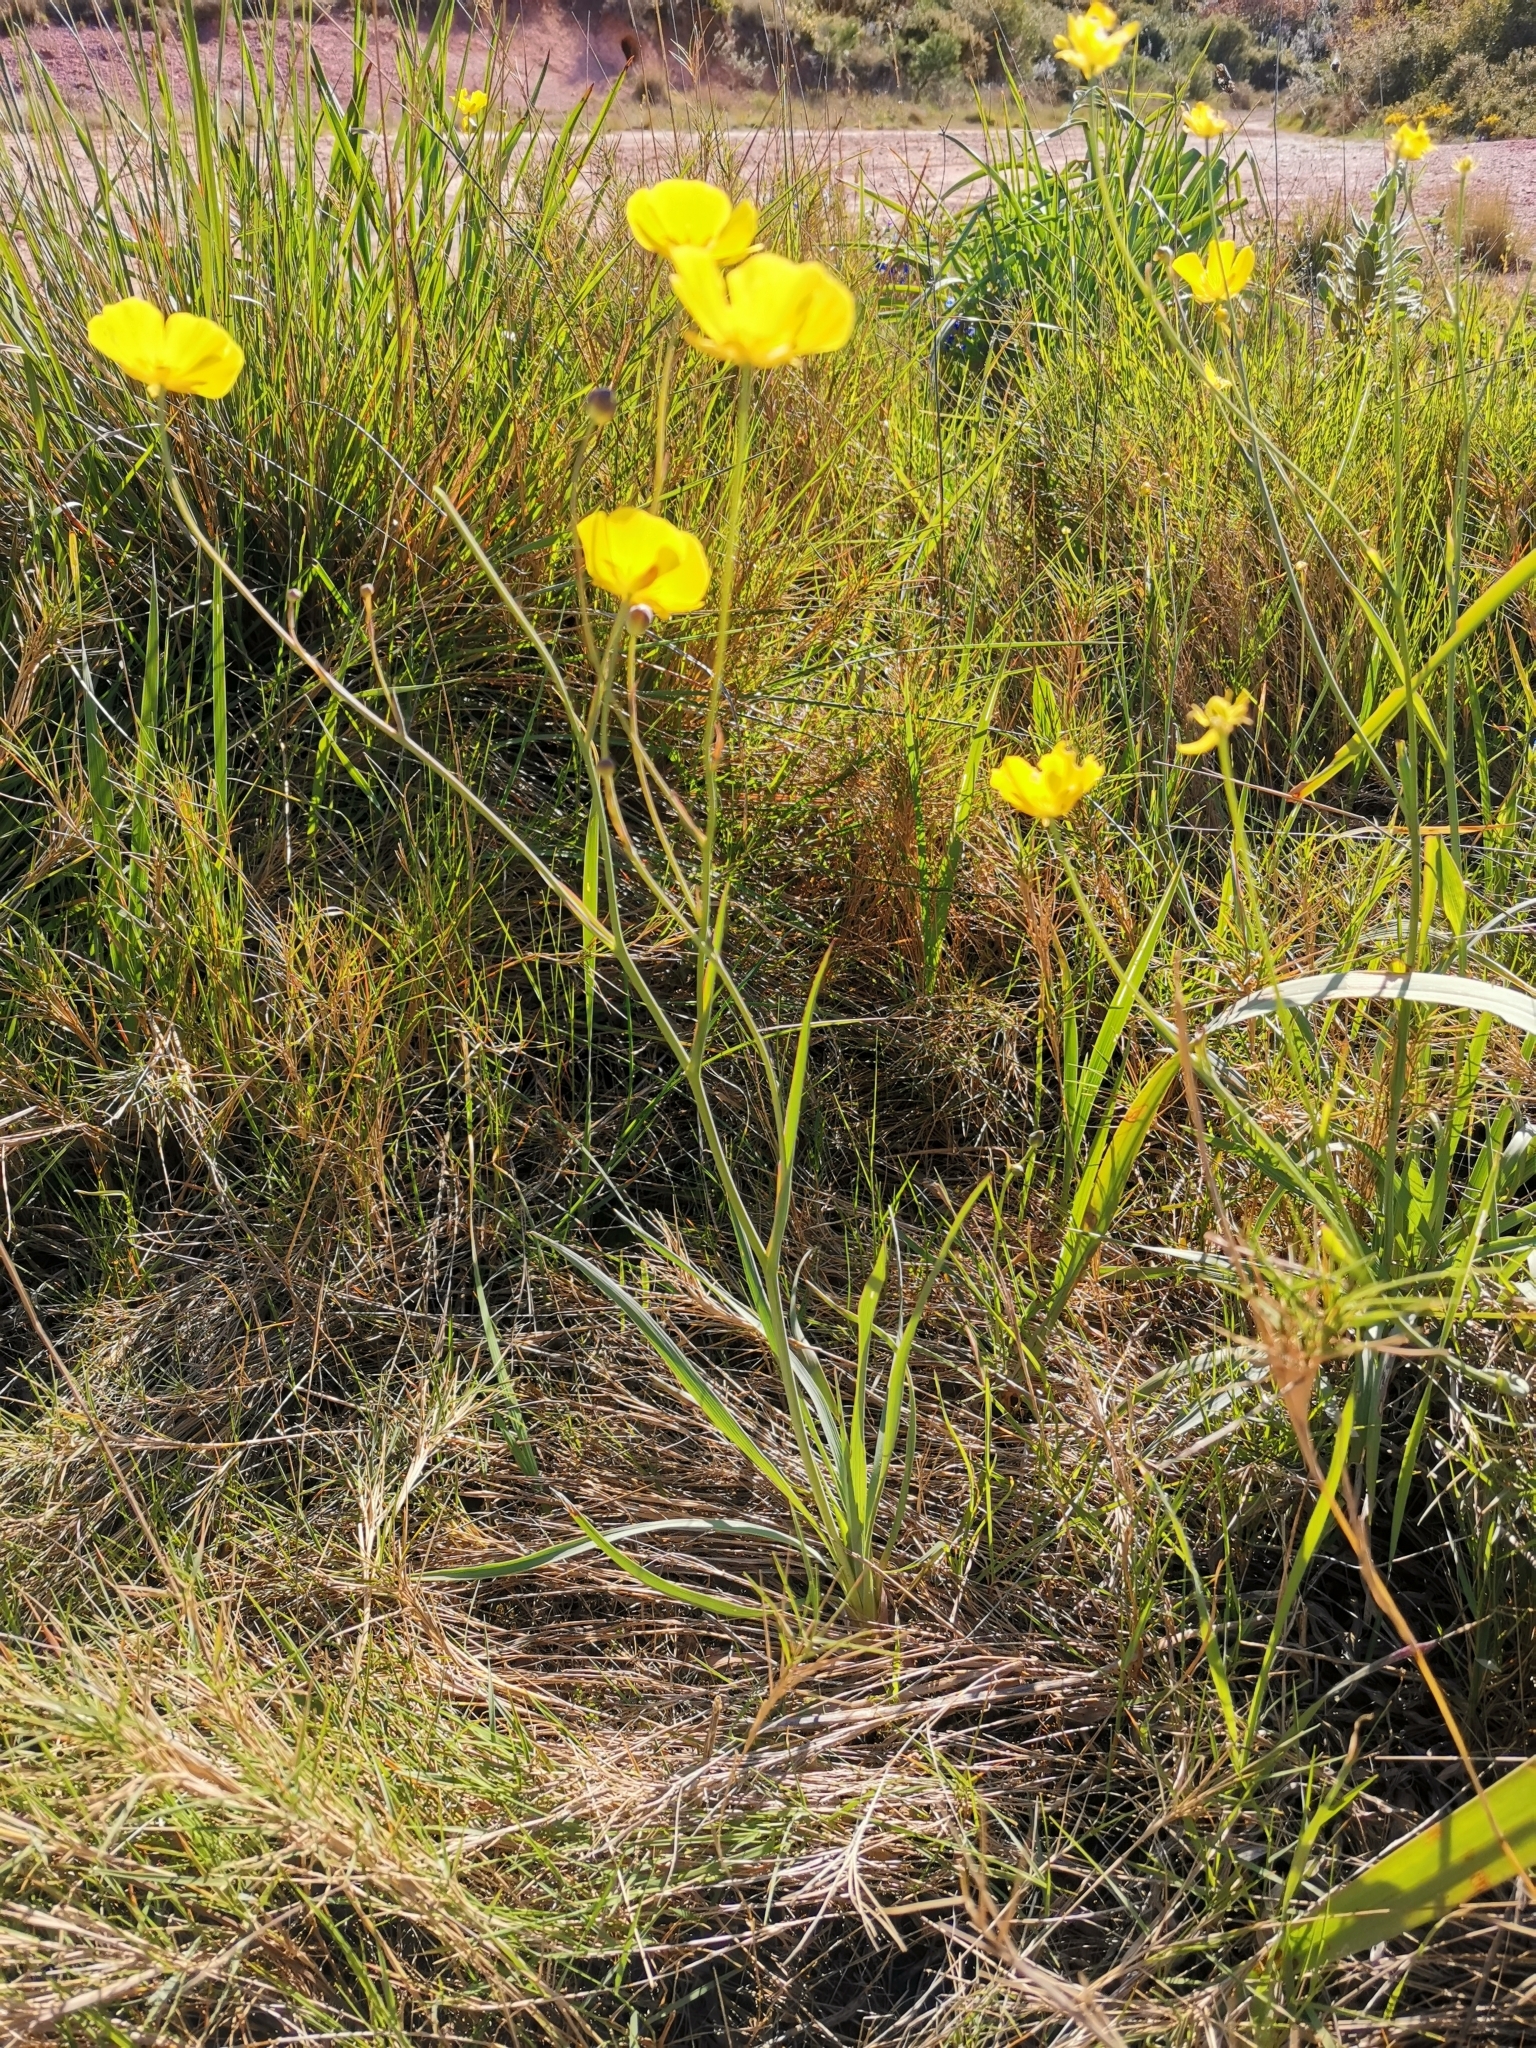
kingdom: Plantae
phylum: Tracheophyta
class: Magnoliopsida
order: Ranunculales
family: Ranunculaceae
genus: Ranunculus
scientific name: Ranunculus gramineus
